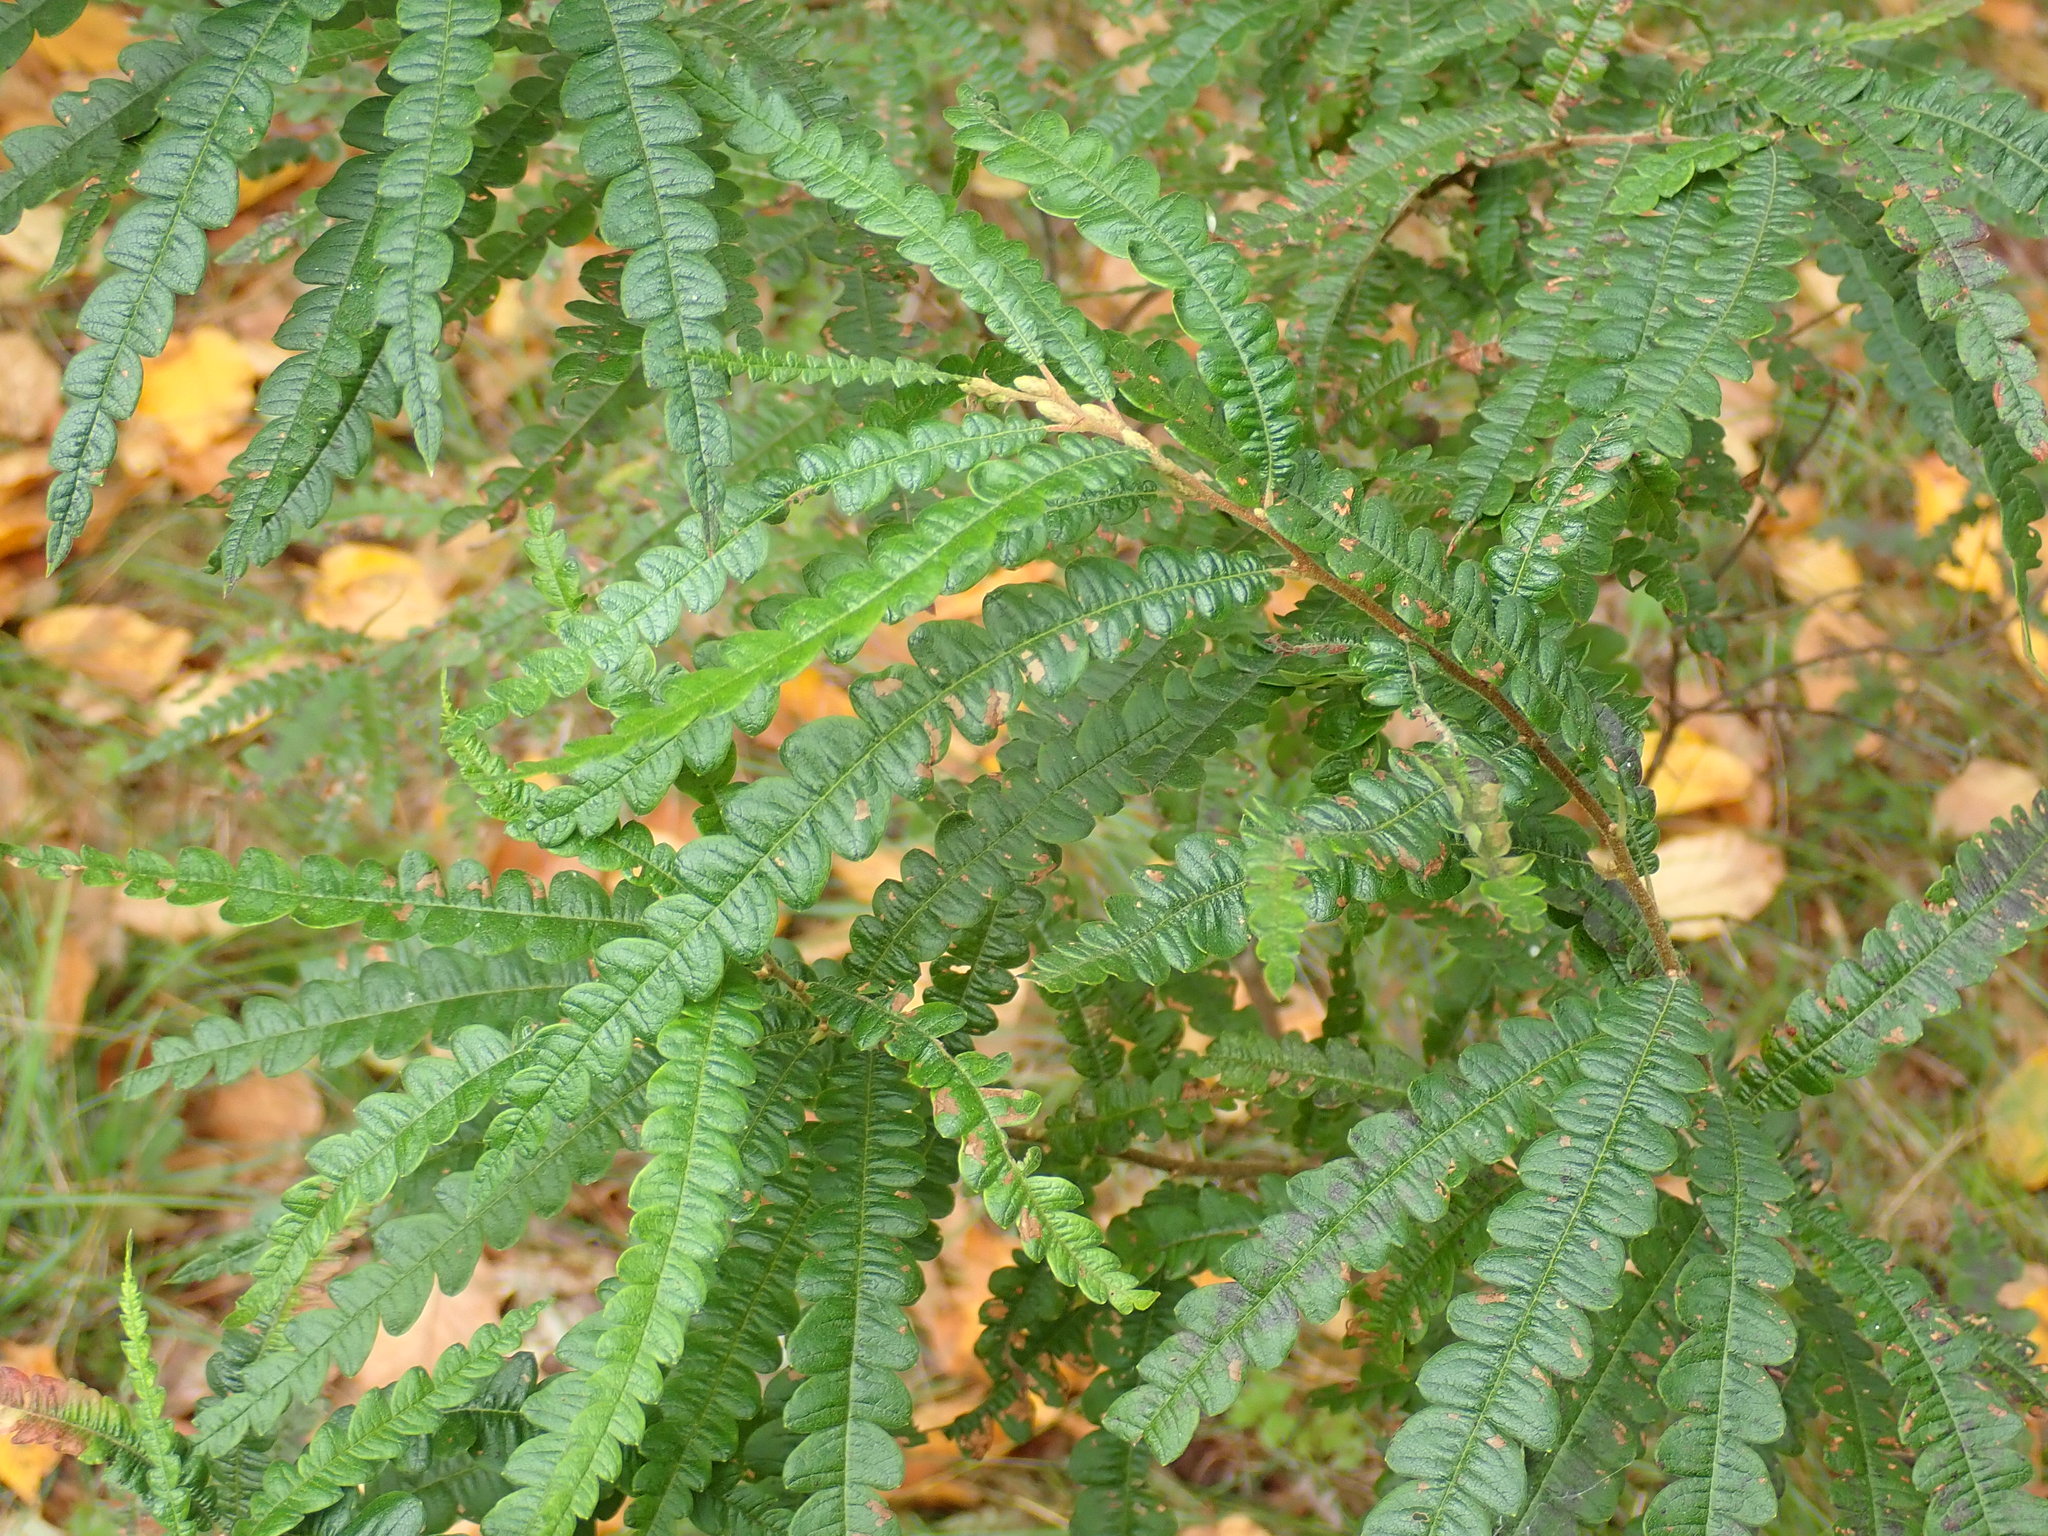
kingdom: Plantae
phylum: Tracheophyta
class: Magnoliopsida
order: Fagales
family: Myricaceae
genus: Comptonia
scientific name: Comptonia peregrina
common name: Sweet-fern
